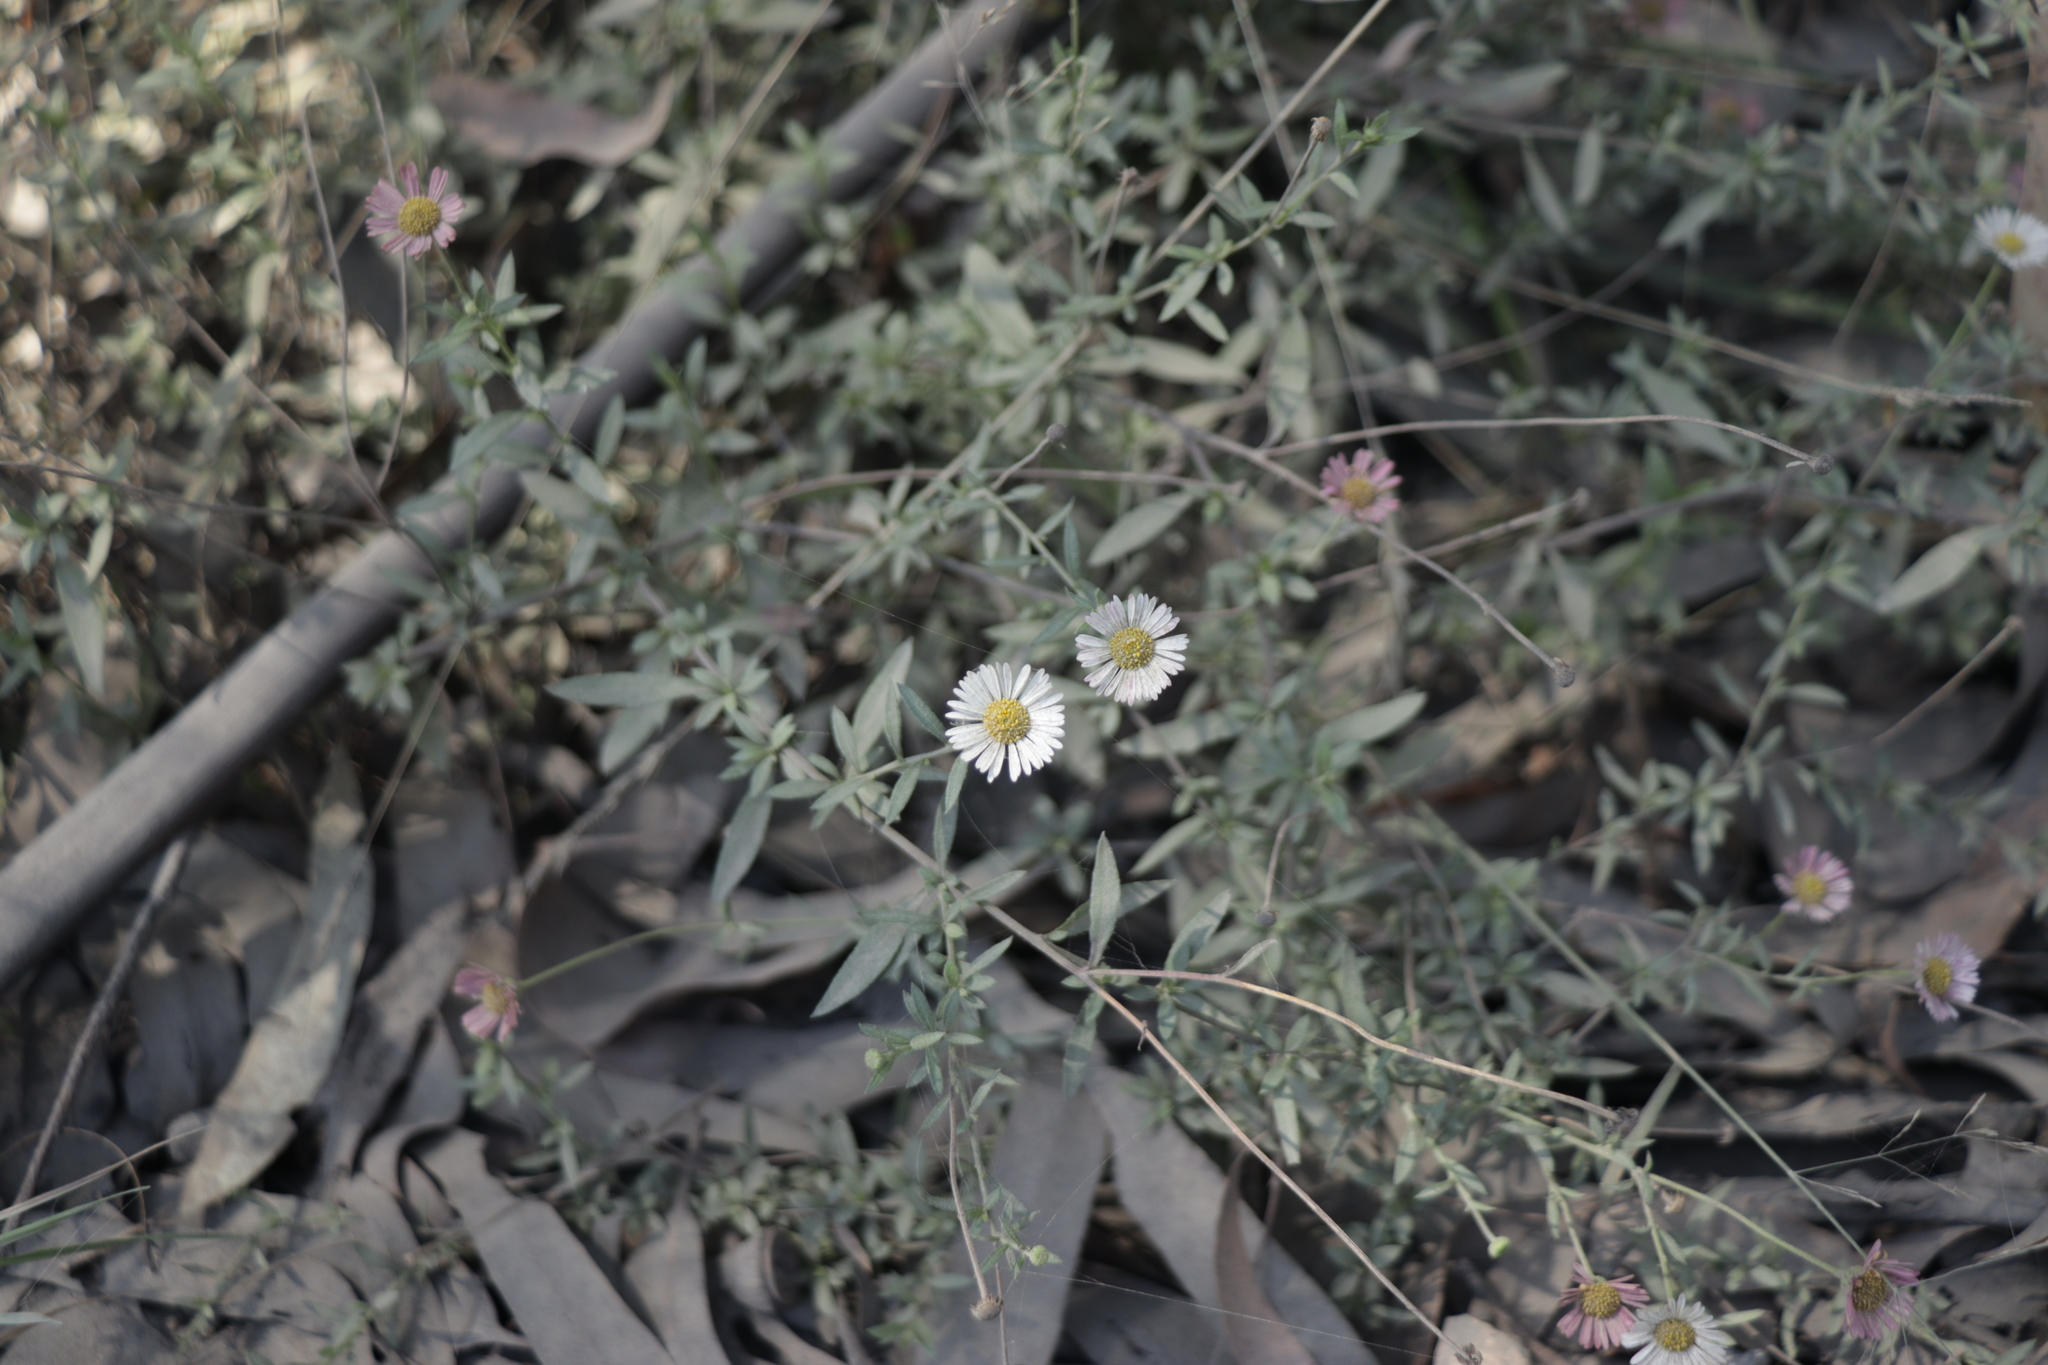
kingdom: Plantae
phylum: Tracheophyta
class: Magnoliopsida
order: Asterales
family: Asteraceae
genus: Erigeron
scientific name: Erigeron karvinskianus
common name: Mexican fleabane
